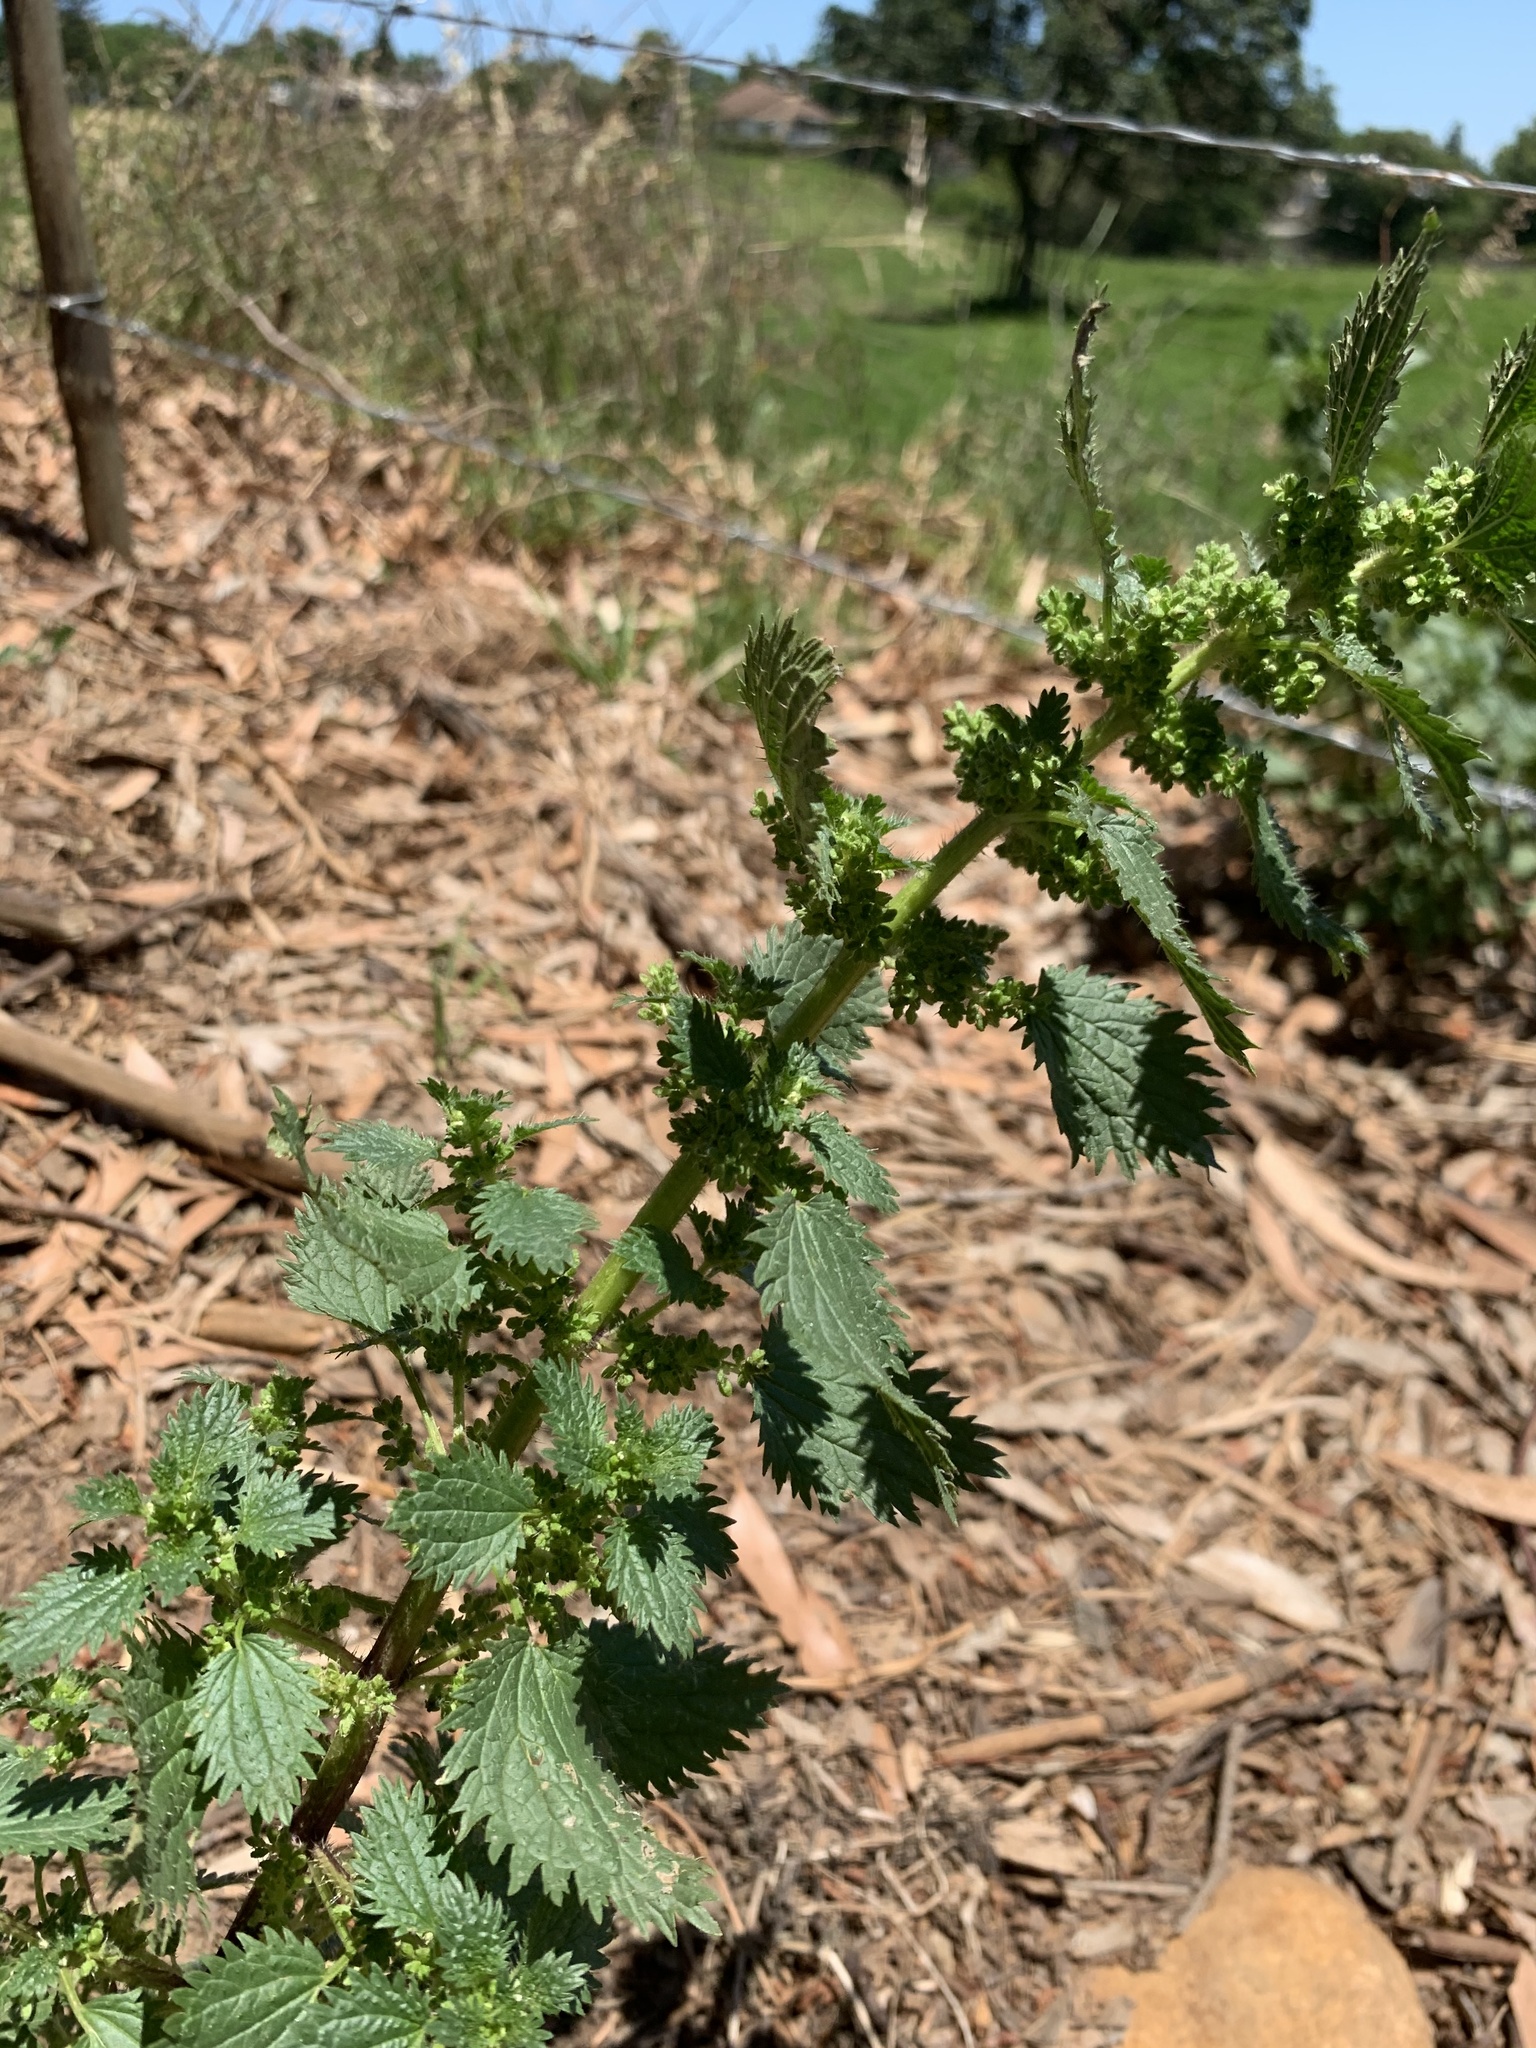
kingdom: Plantae
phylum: Tracheophyta
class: Magnoliopsida
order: Rosales
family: Urticaceae
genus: Urtica
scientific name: Urtica urens
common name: Dwarf nettle
